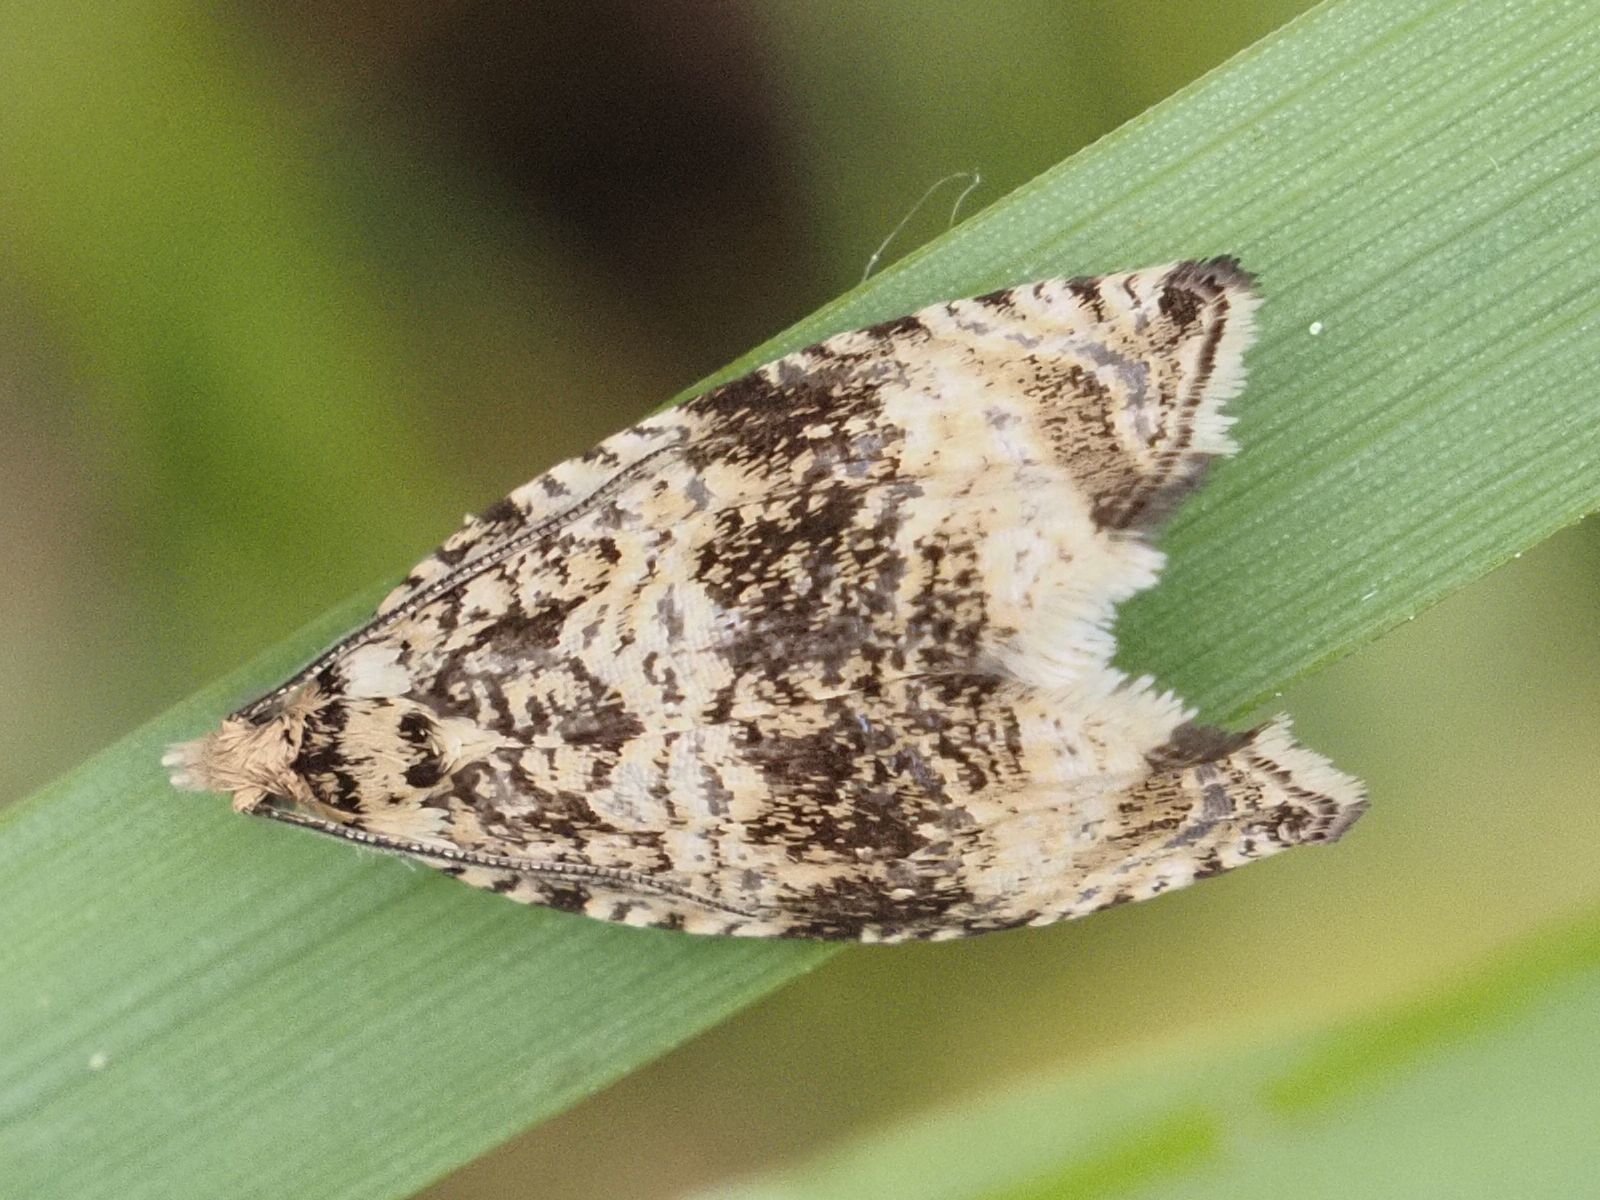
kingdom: Animalia
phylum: Arthropoda
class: Insecta
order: Lepidoptera
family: Tortricidae
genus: Syricoris
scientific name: Syricoris lacunana
